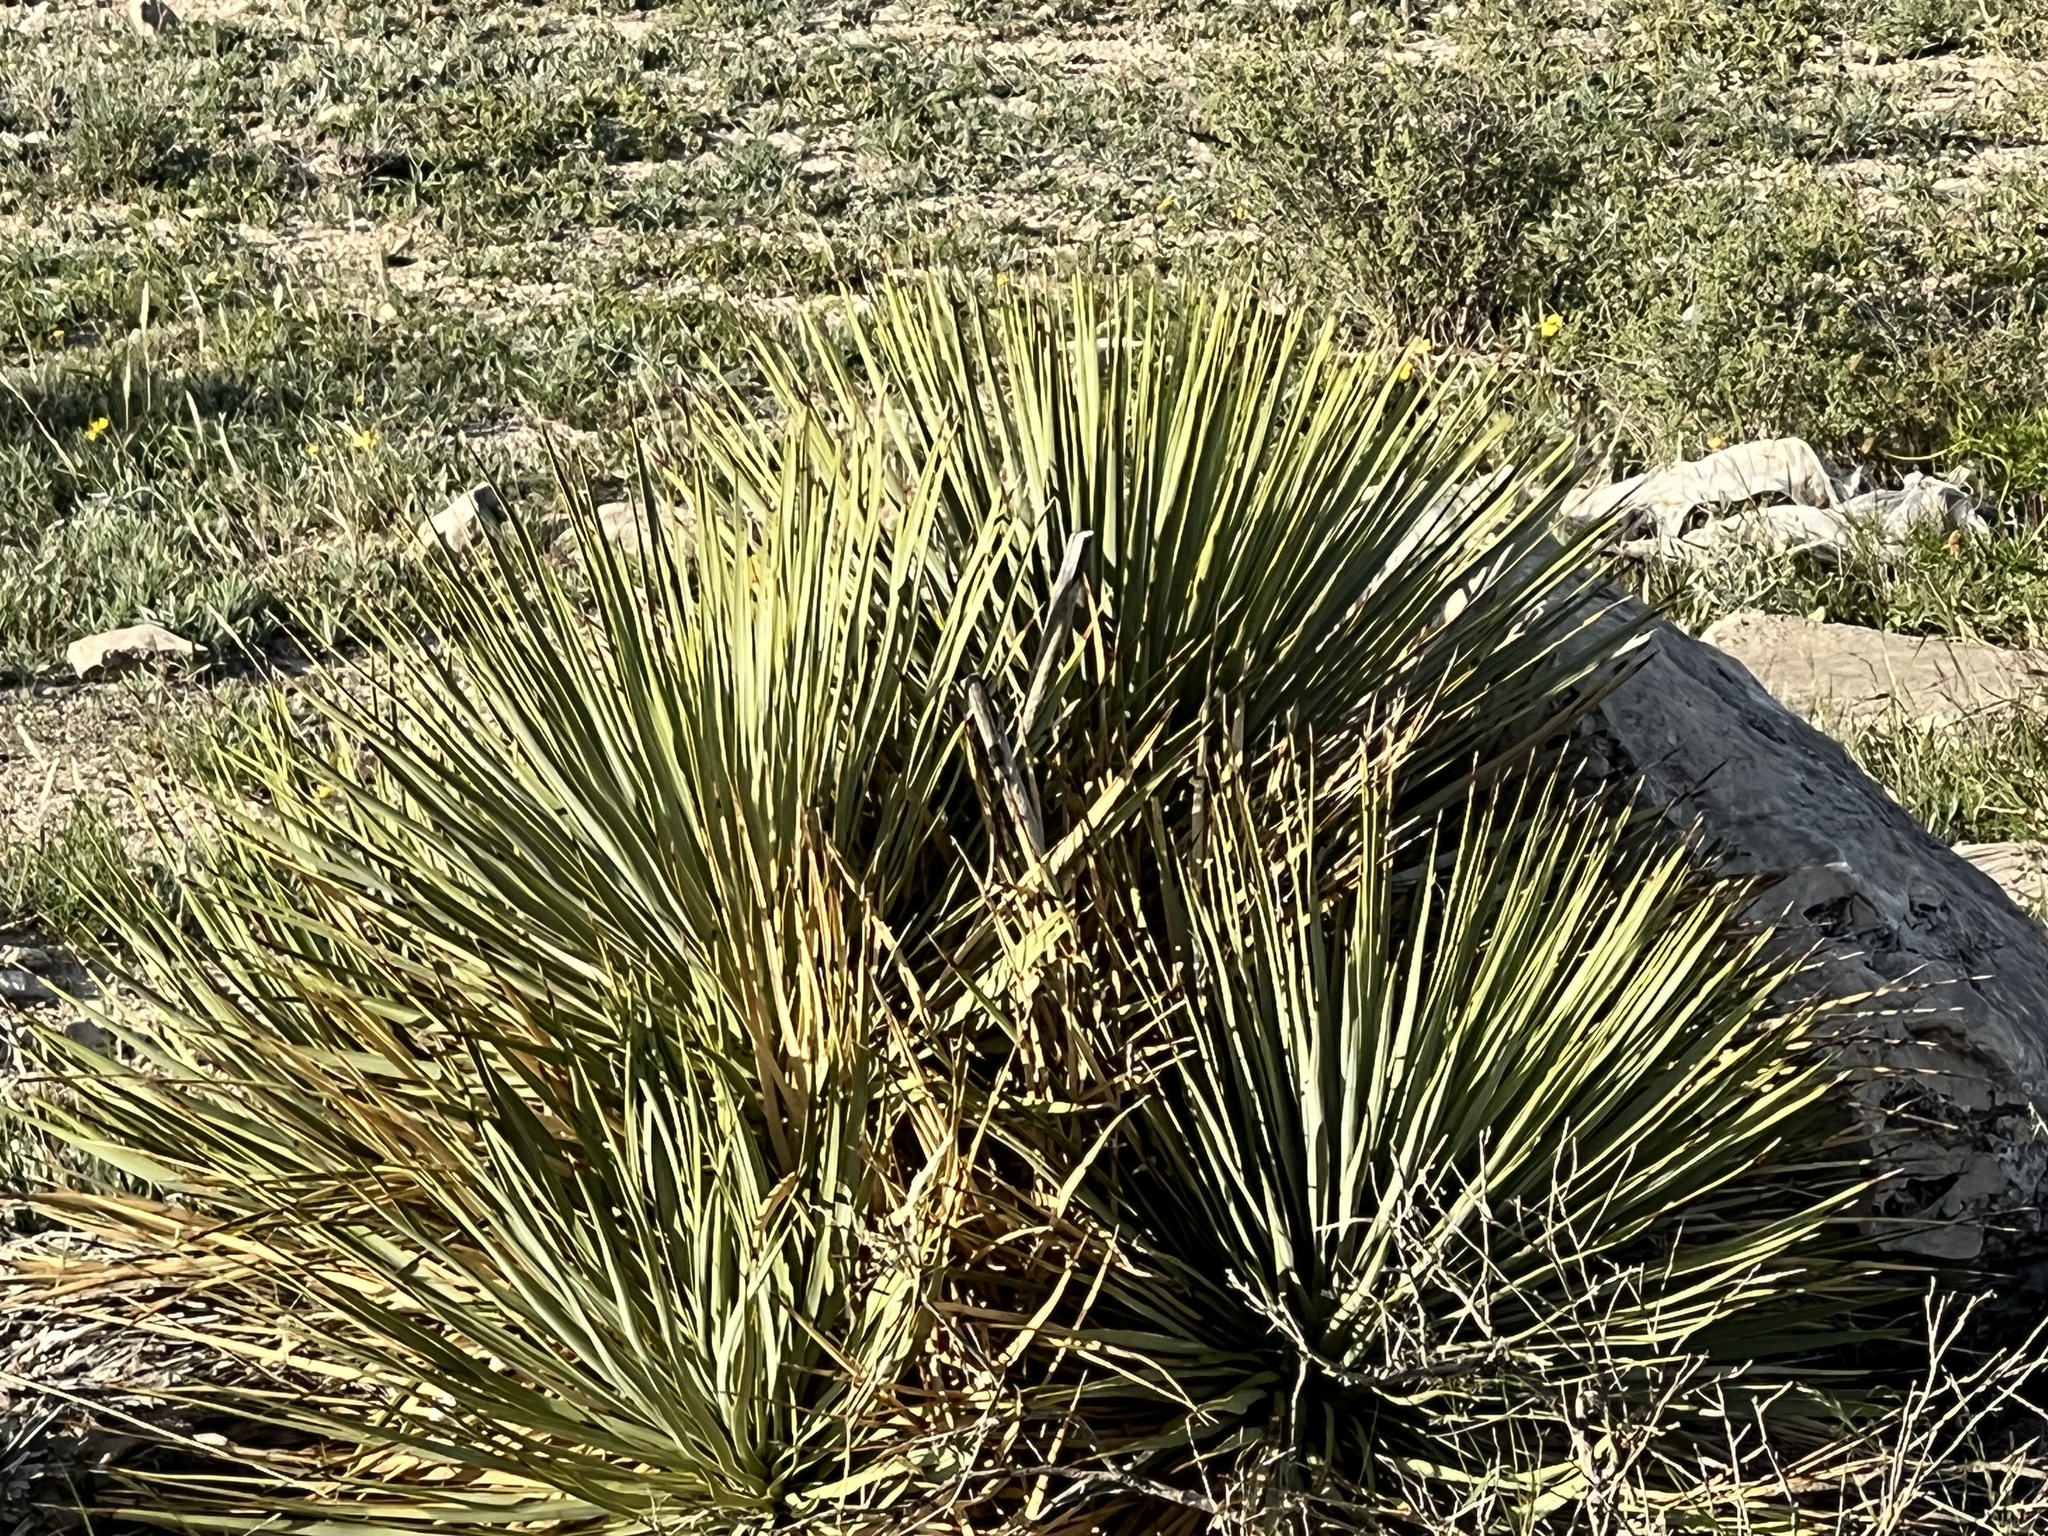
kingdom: Plantae
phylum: Tracheophyta
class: Liliopsida
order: Asparagales
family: Asparagaceae
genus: Yucca
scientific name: Yucca treculiana
